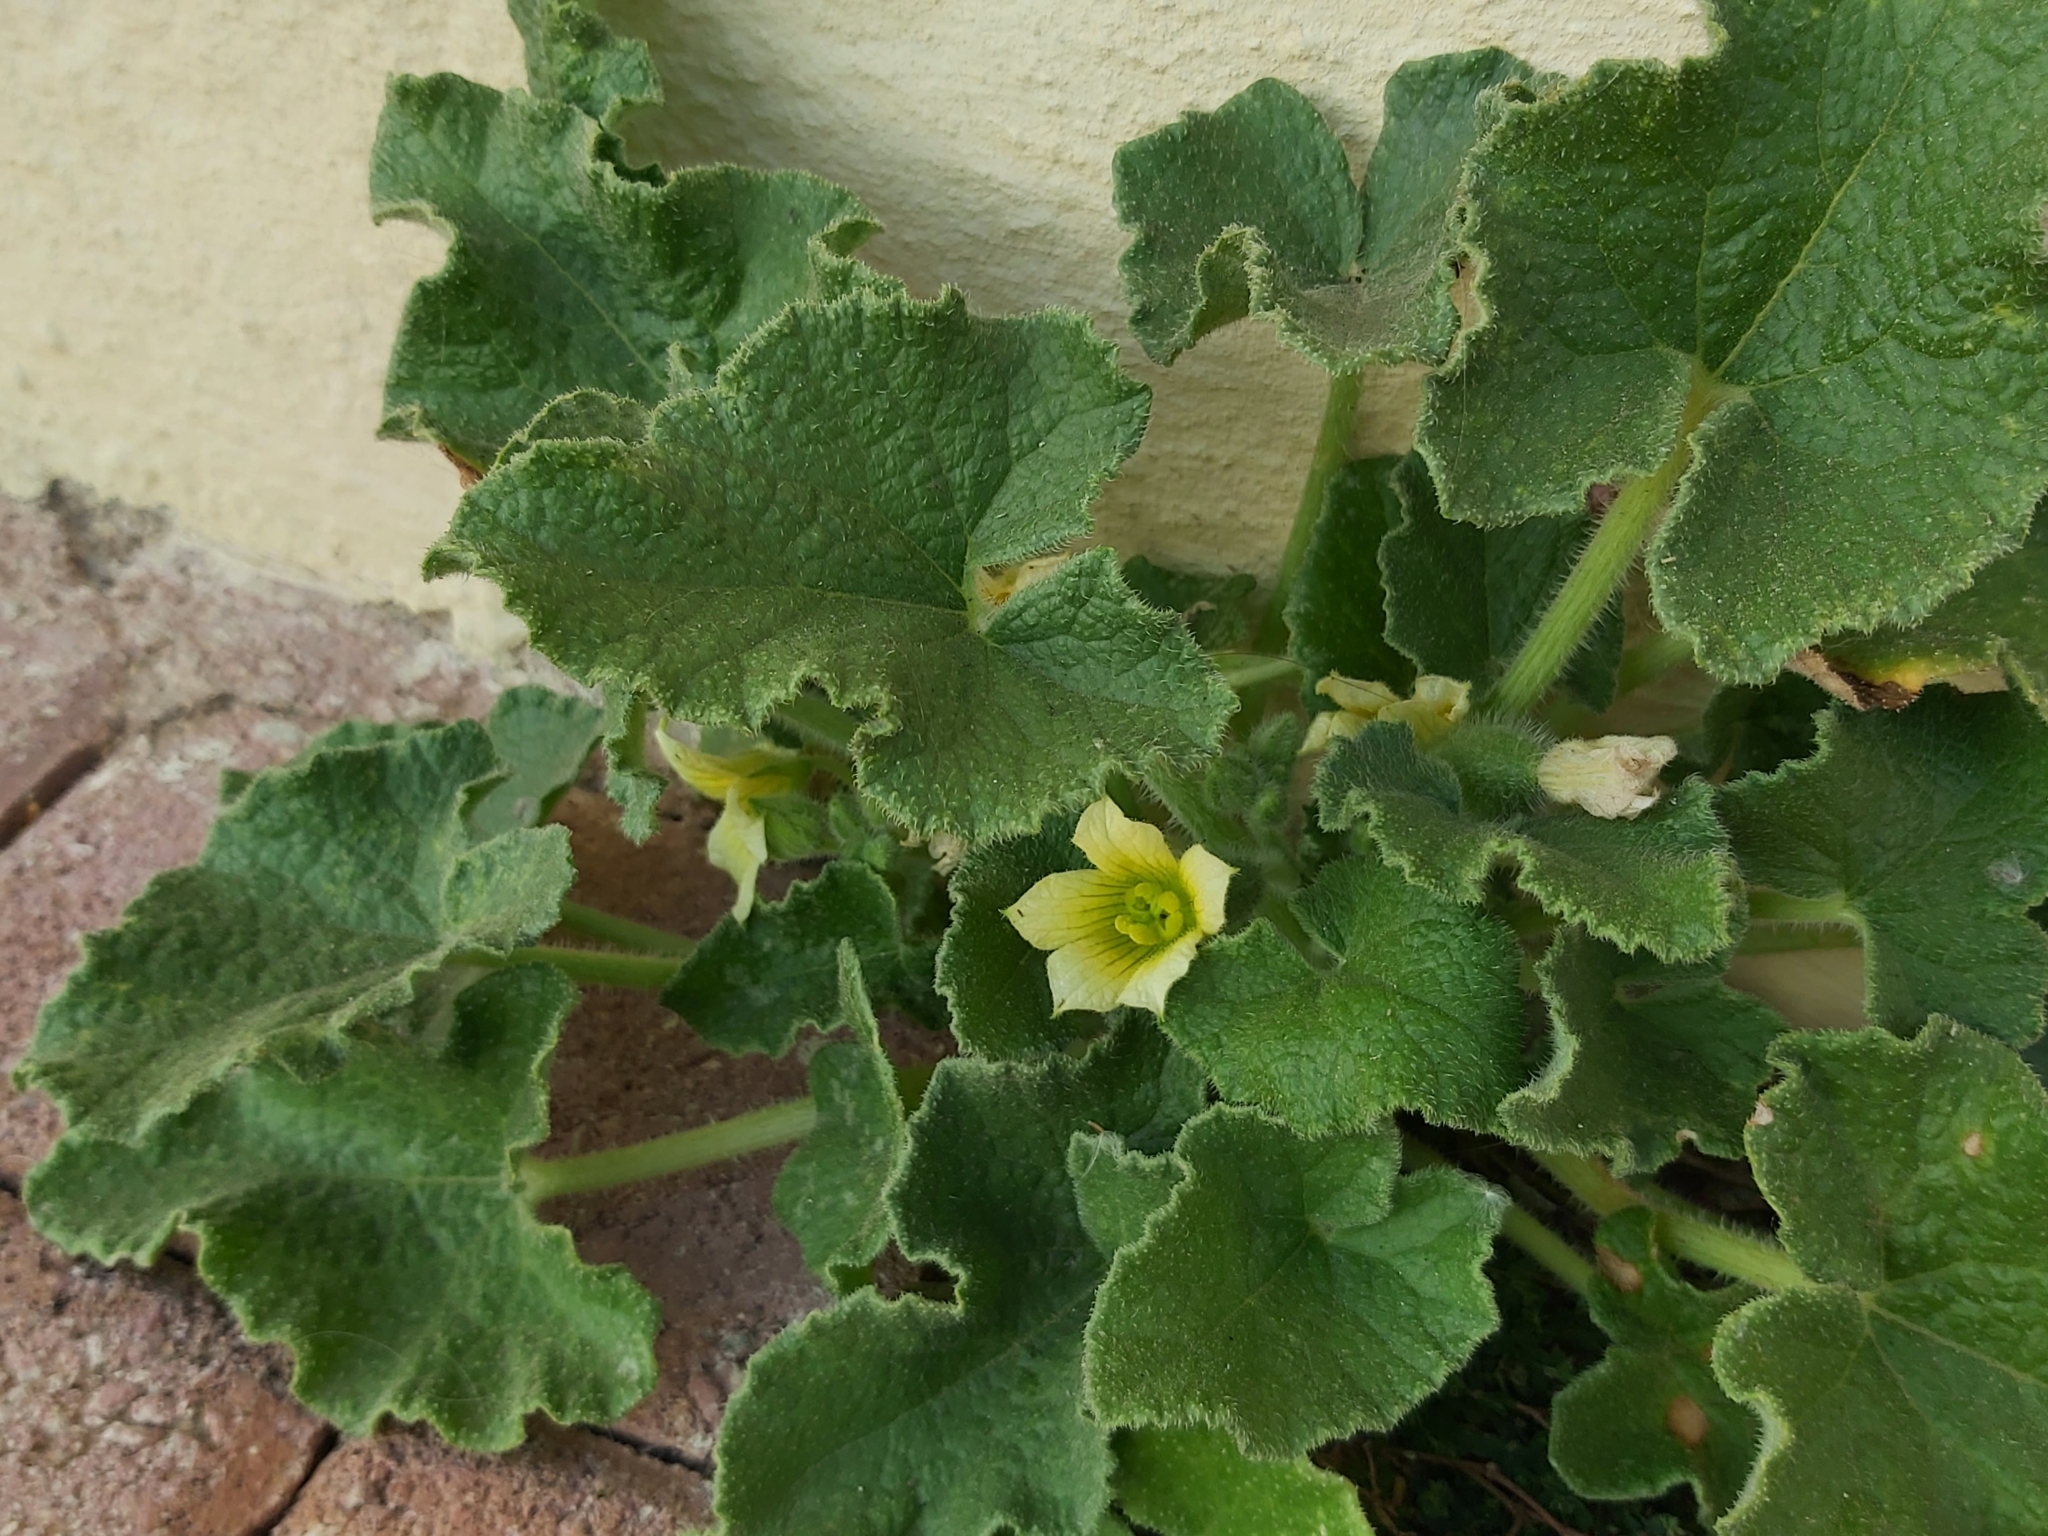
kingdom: Plantae
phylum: Tracheophyta
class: Magnoliopsida
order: Cucurbitales
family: Cucurbitaceae
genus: Ecballium
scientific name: Ecballium elaterium
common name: Squirting cucumber
